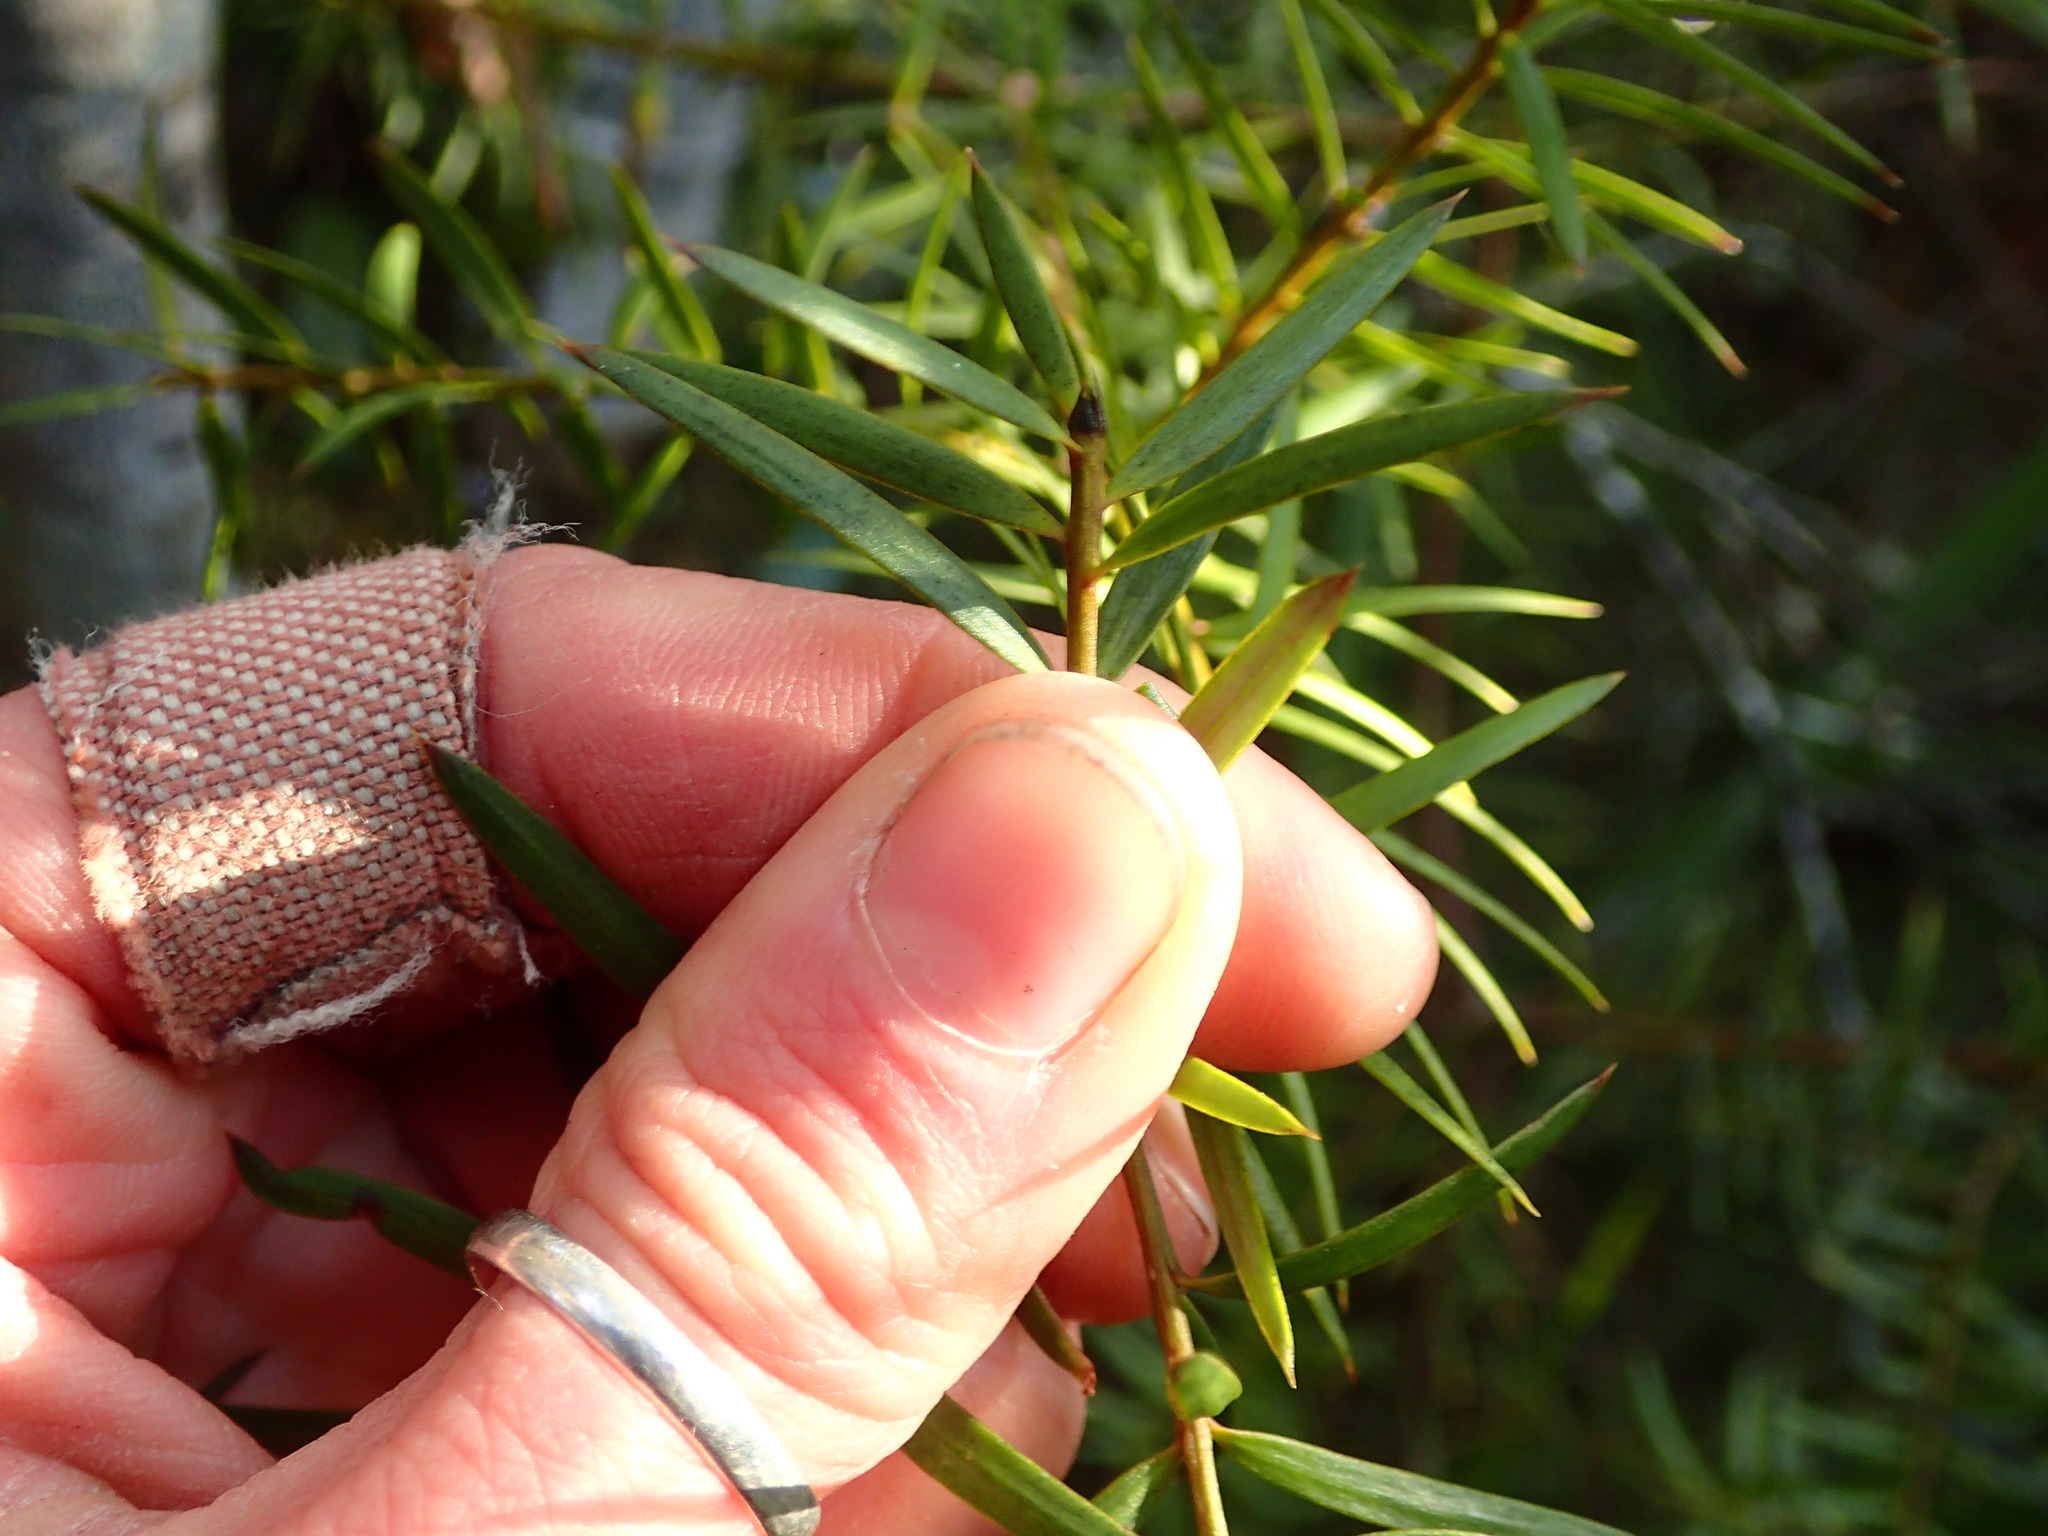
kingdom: Plantae
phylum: Tracheophyta
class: Pinopsida
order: Pinales
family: Podocarpaceae
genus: Podocarpus
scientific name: Podocarpus totara
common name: Totara
